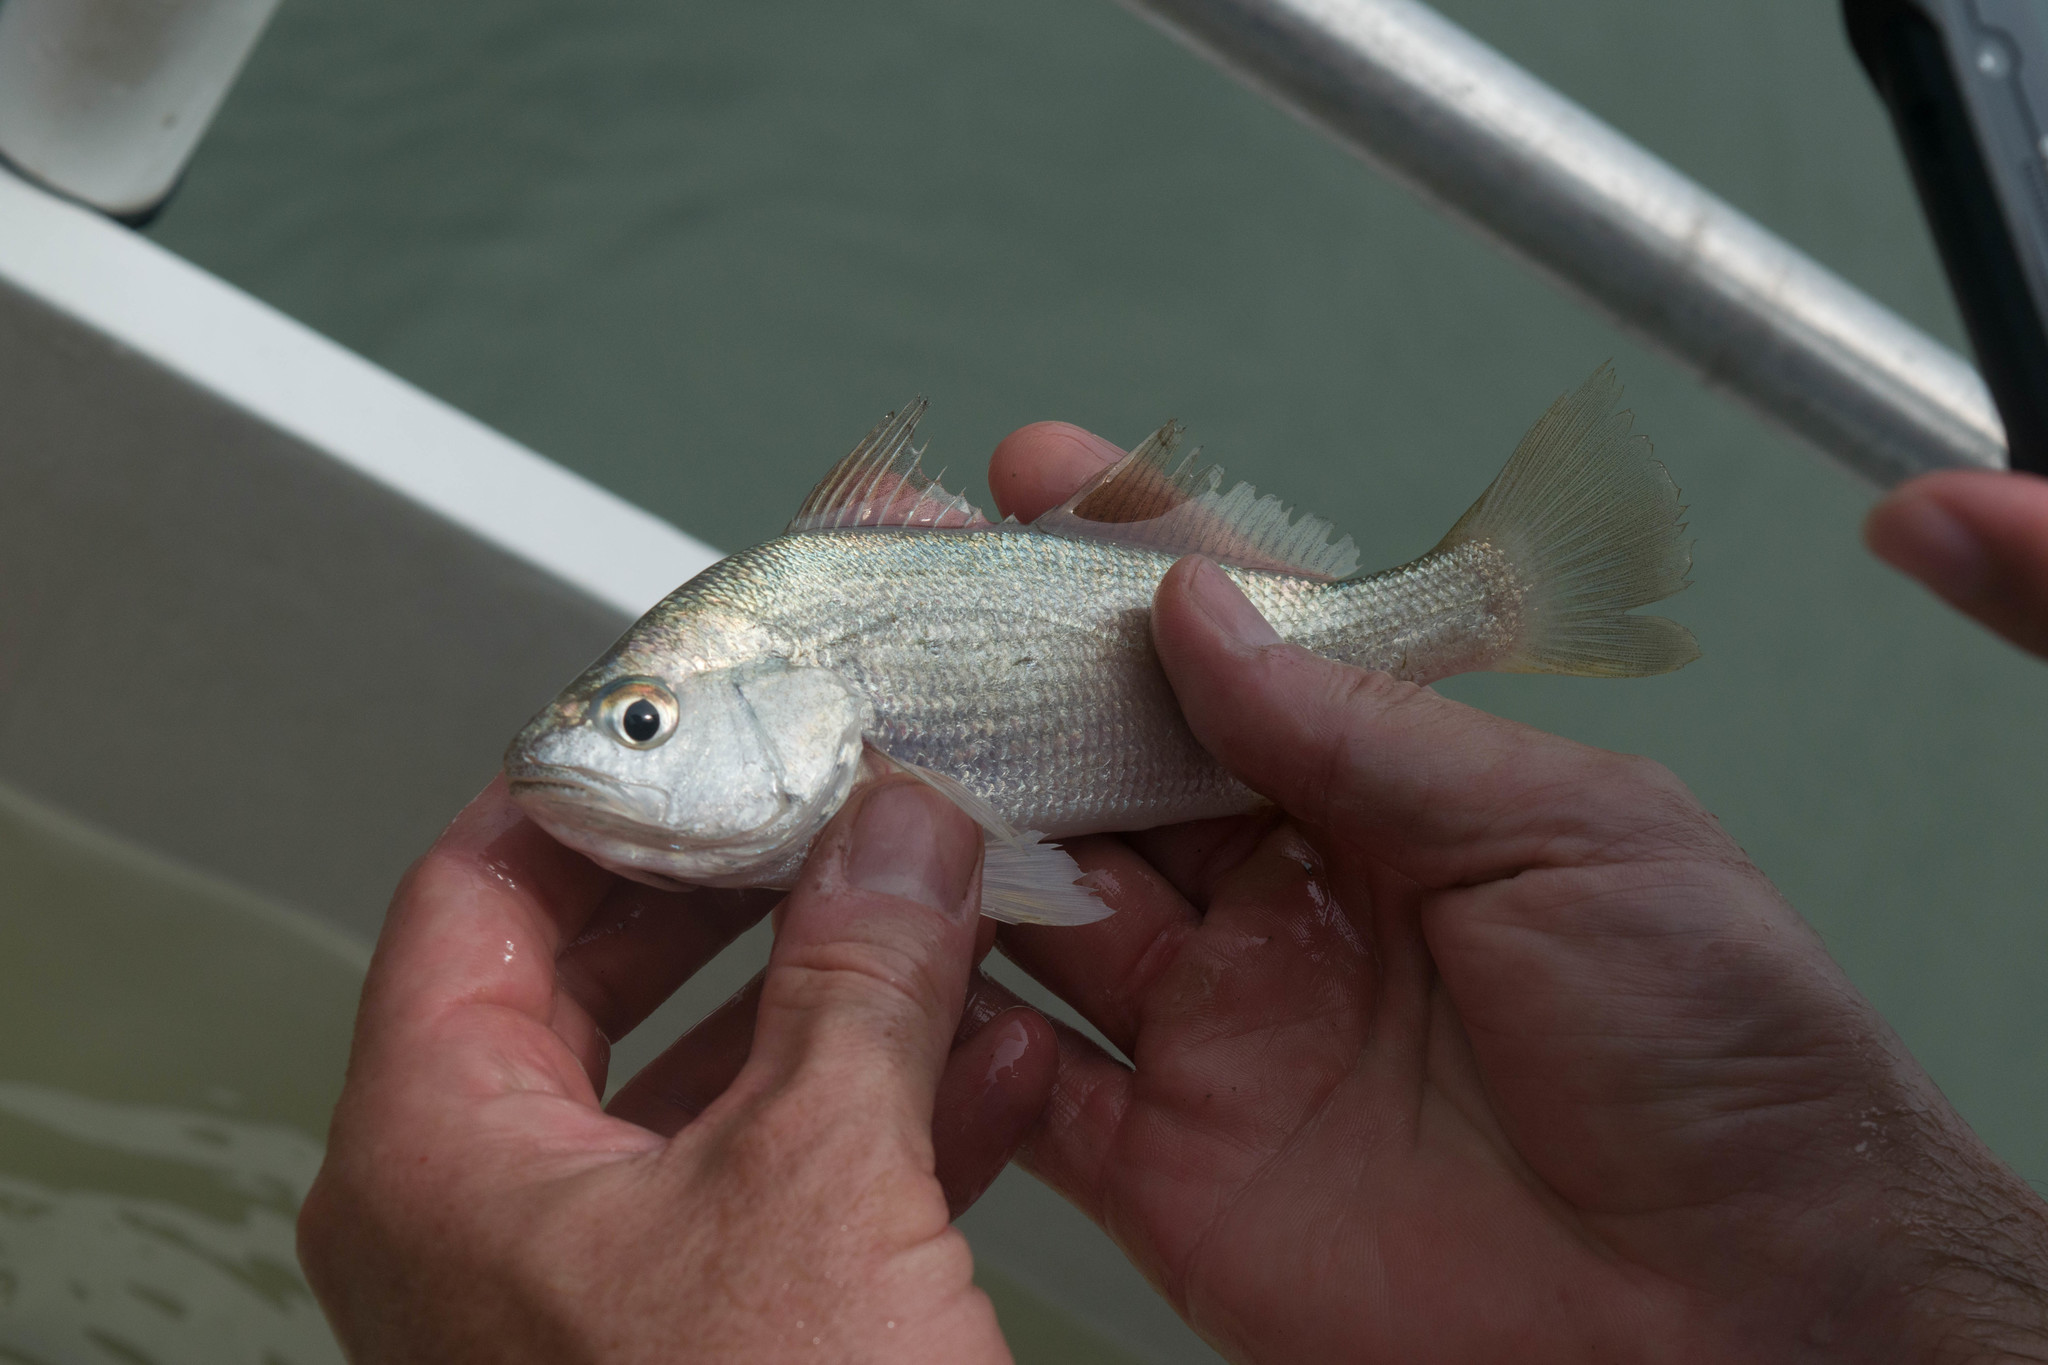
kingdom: Animalia
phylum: Chordata
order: Perciformes
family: Sciaenidae
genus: Bairdiella
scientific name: Bairdiella chrysoura
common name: Silver perch
